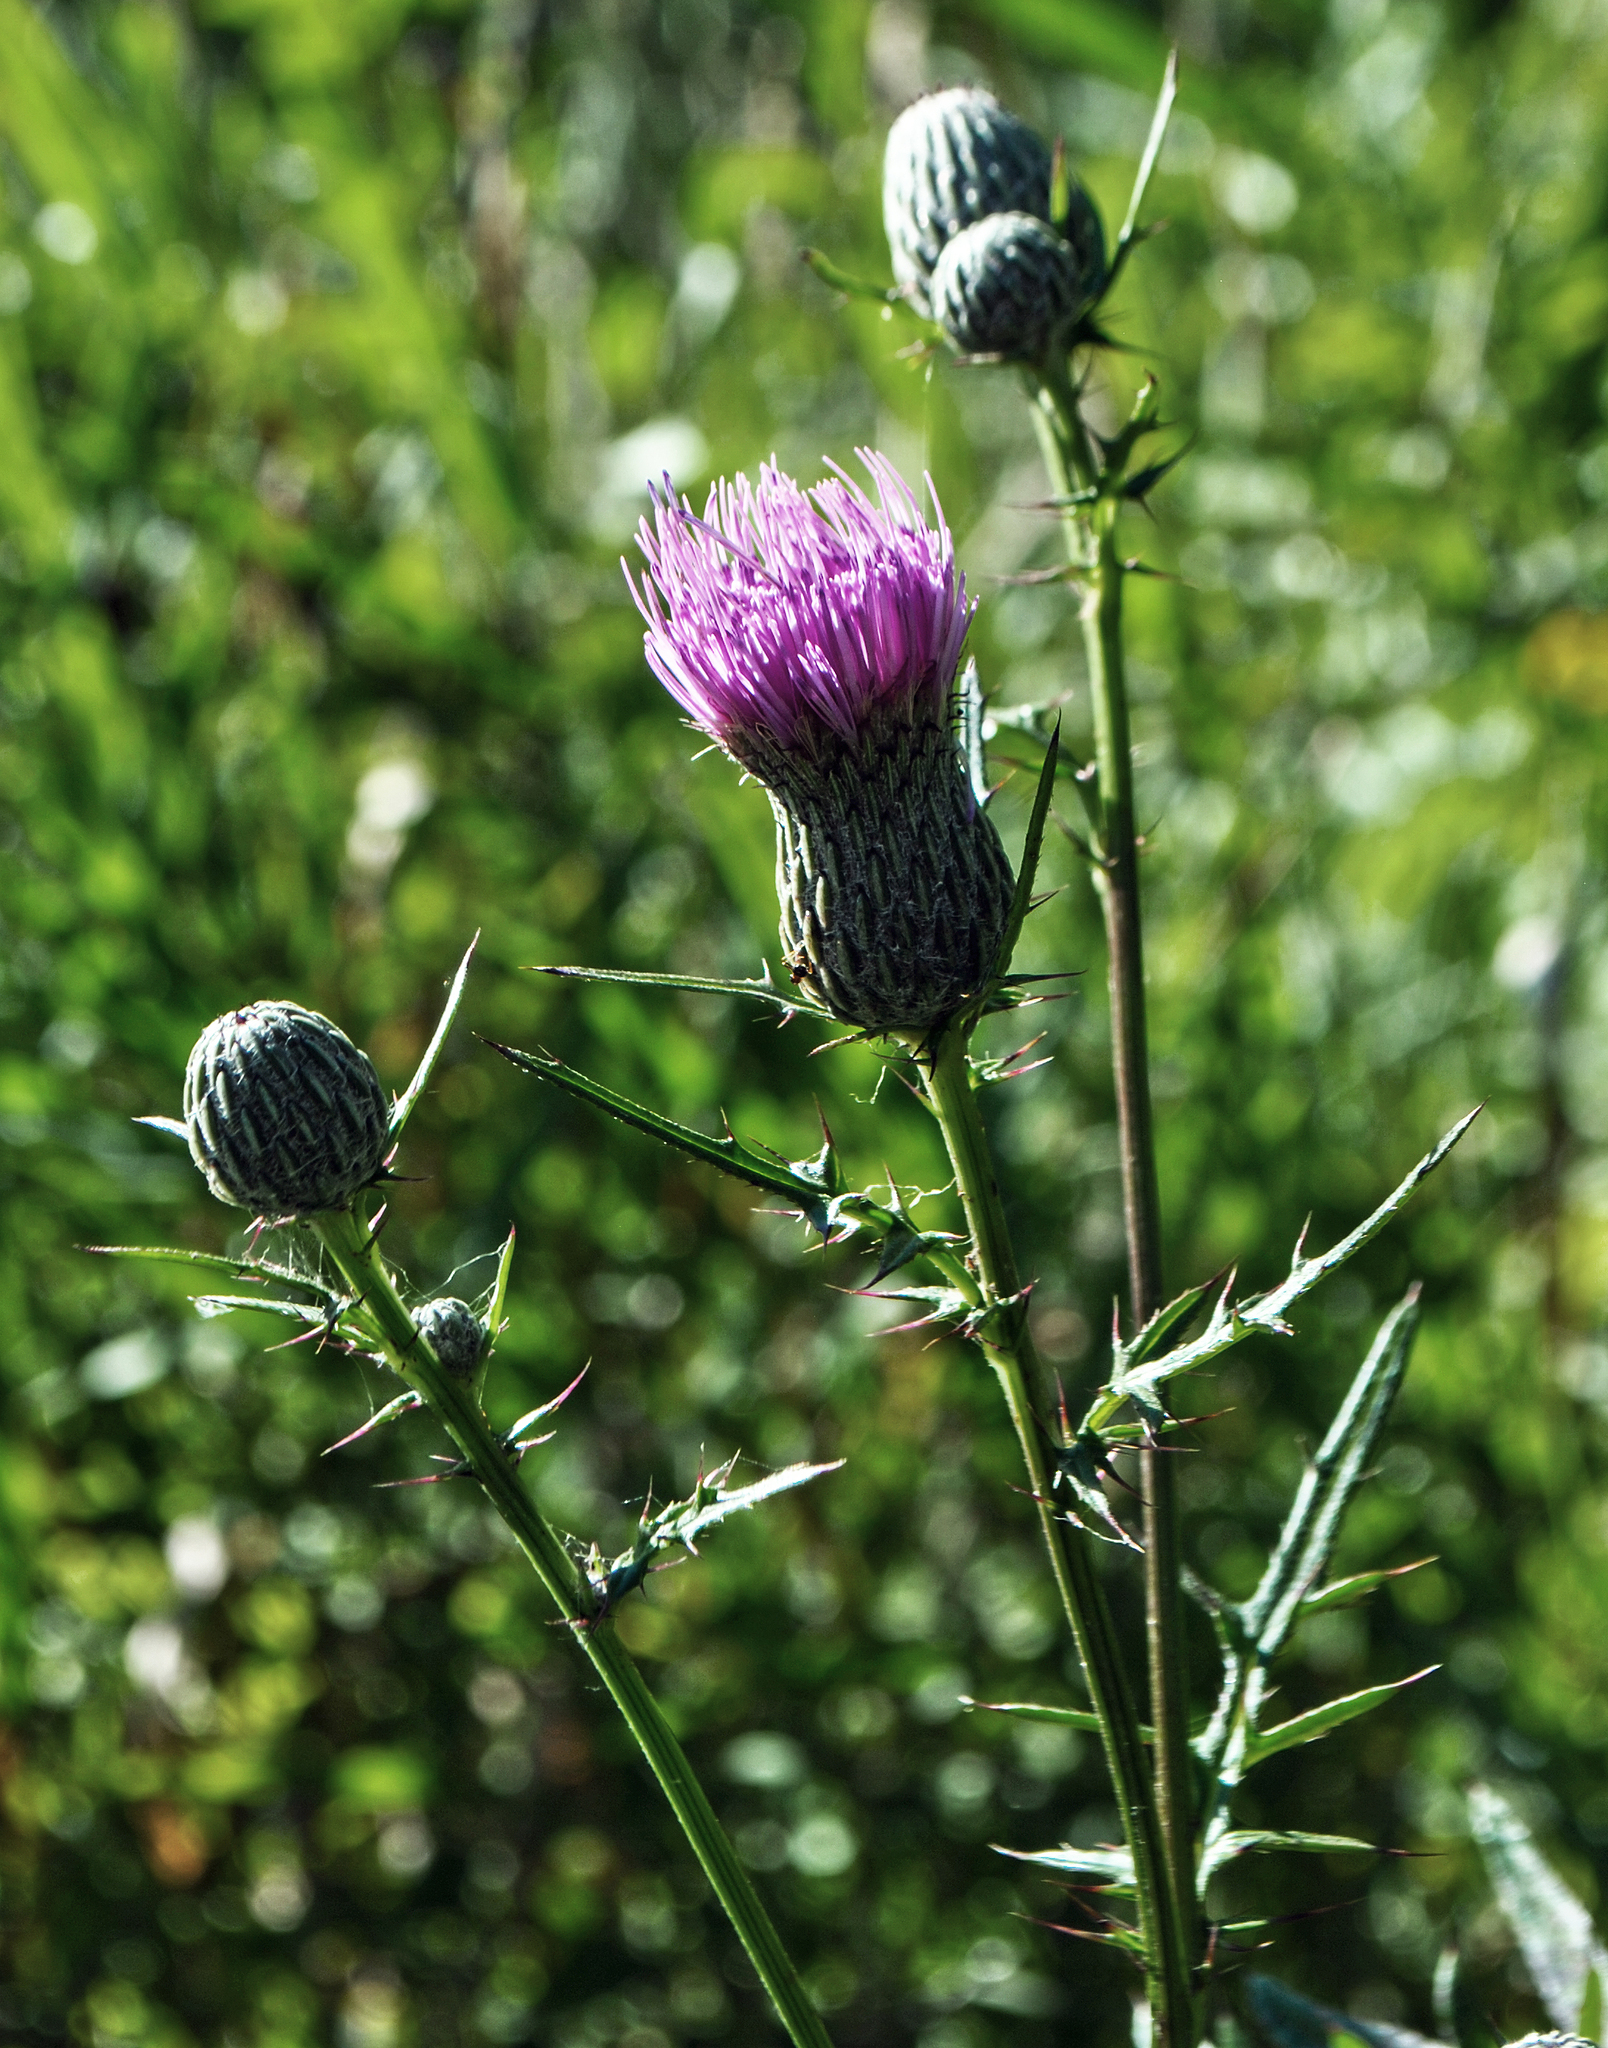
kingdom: Plantae
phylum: Tracheophyta
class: Magnoliopsida
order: Asterales
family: Asteraceae
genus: Cirsium
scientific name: Cirsium muticum
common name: Dunce-nettle
